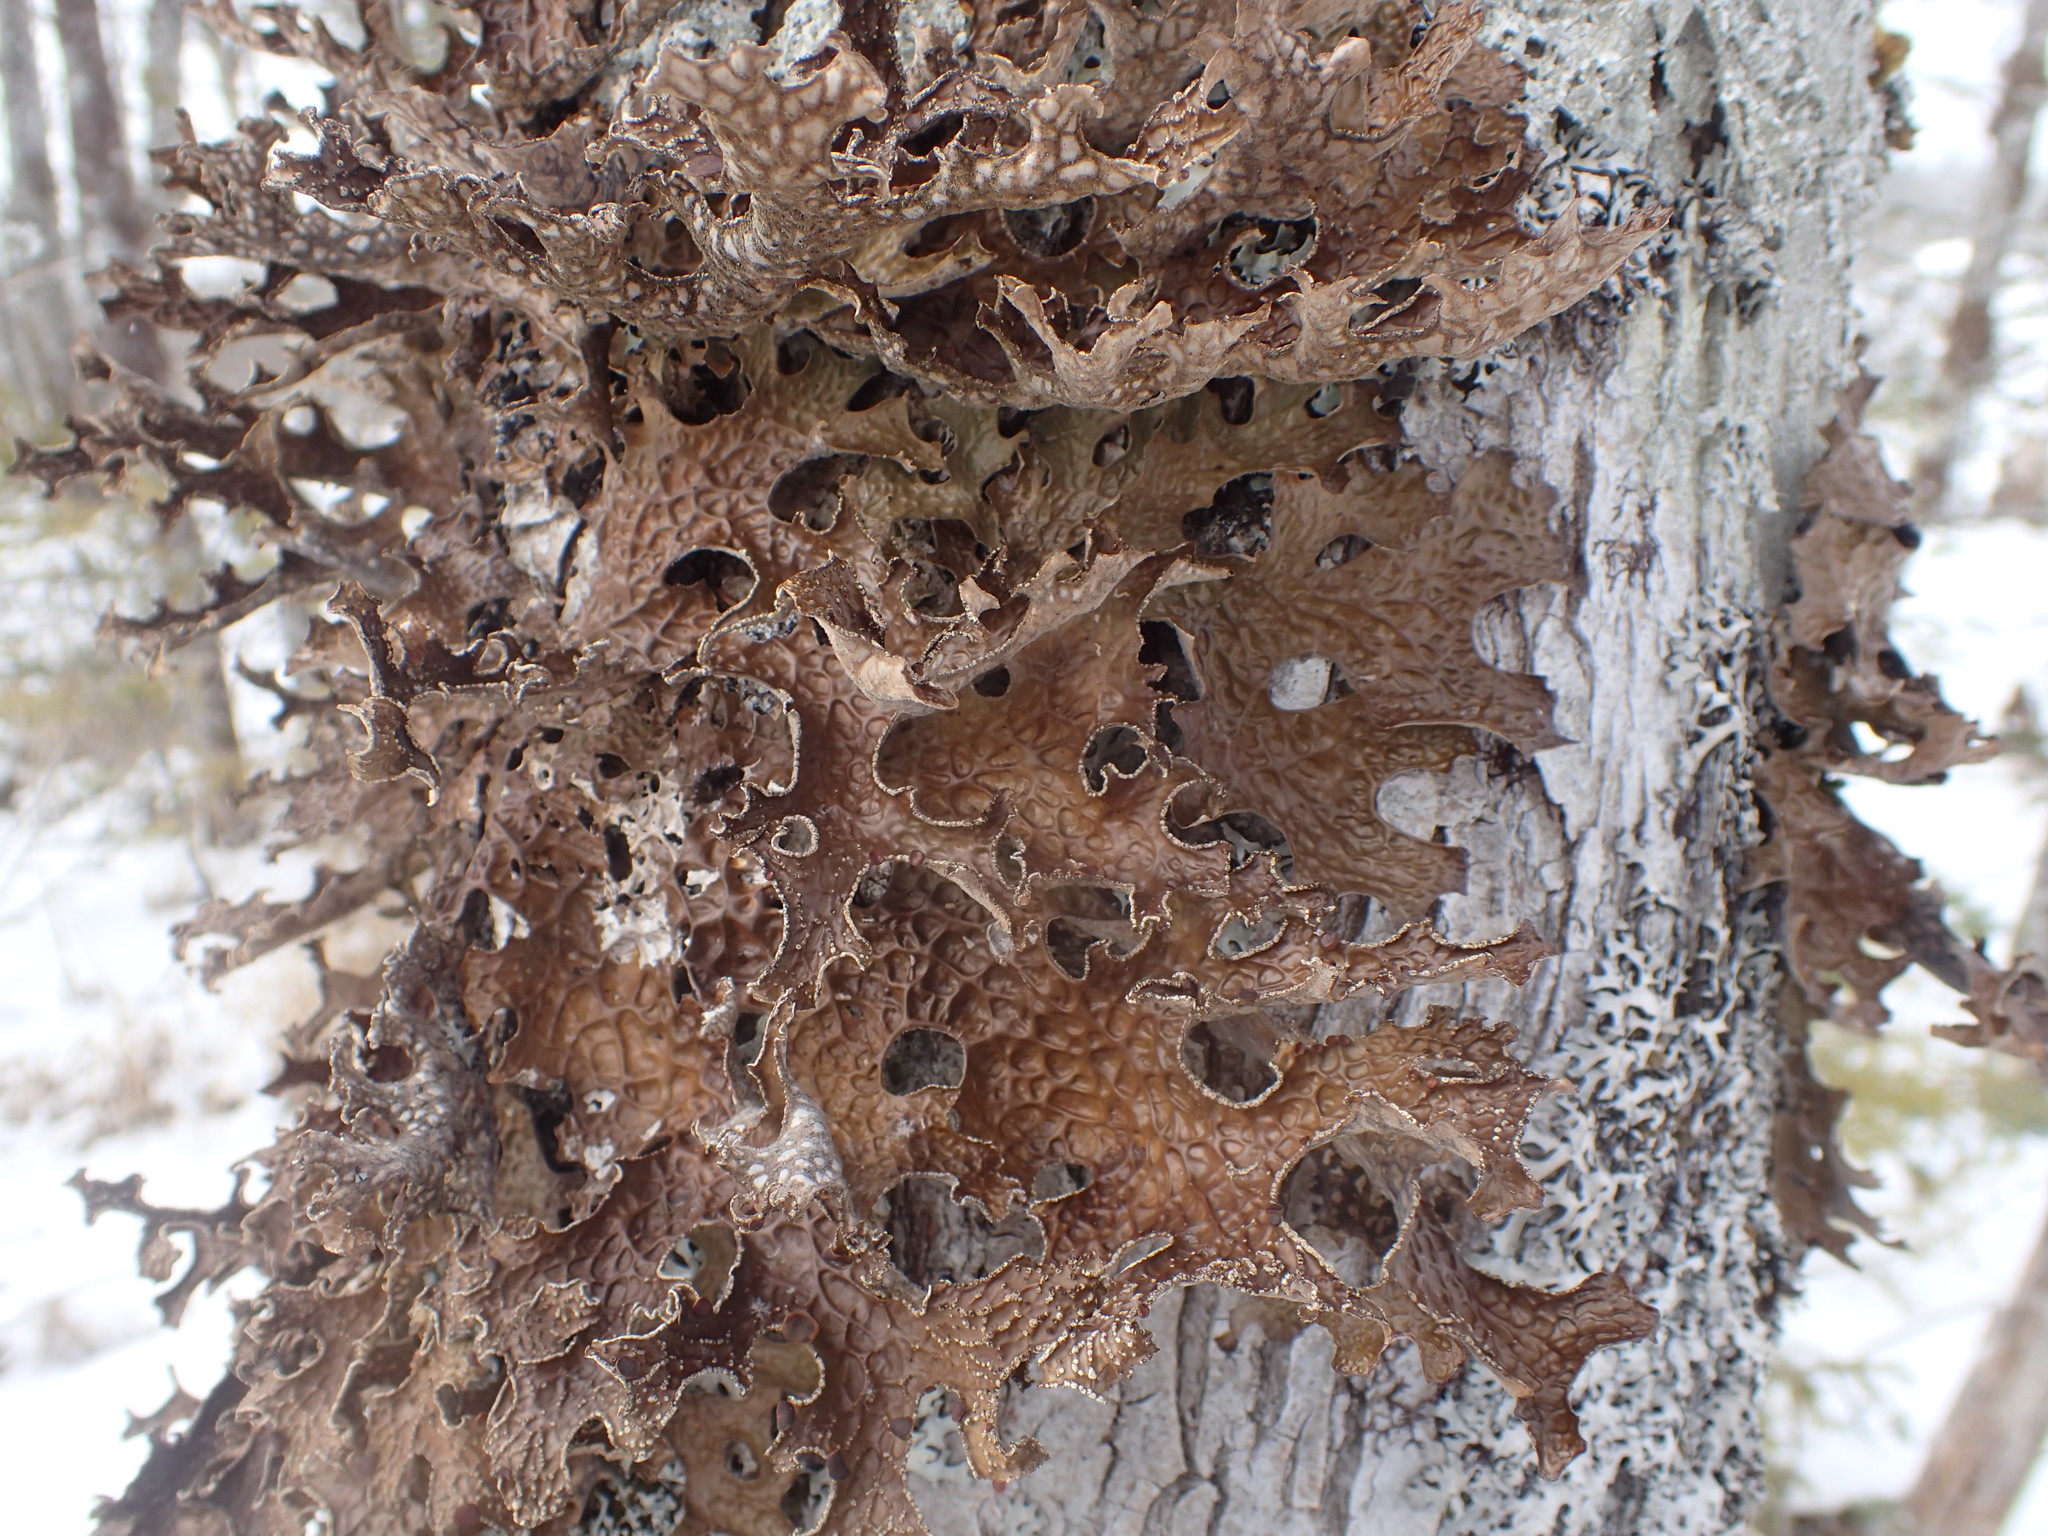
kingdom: Fungi
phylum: Ascomycota
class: Lecanoromycetes
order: Peltigerales
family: Lobariaceae
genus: Lobaria
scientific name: Lobaria pulmonaria
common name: Lungwort
